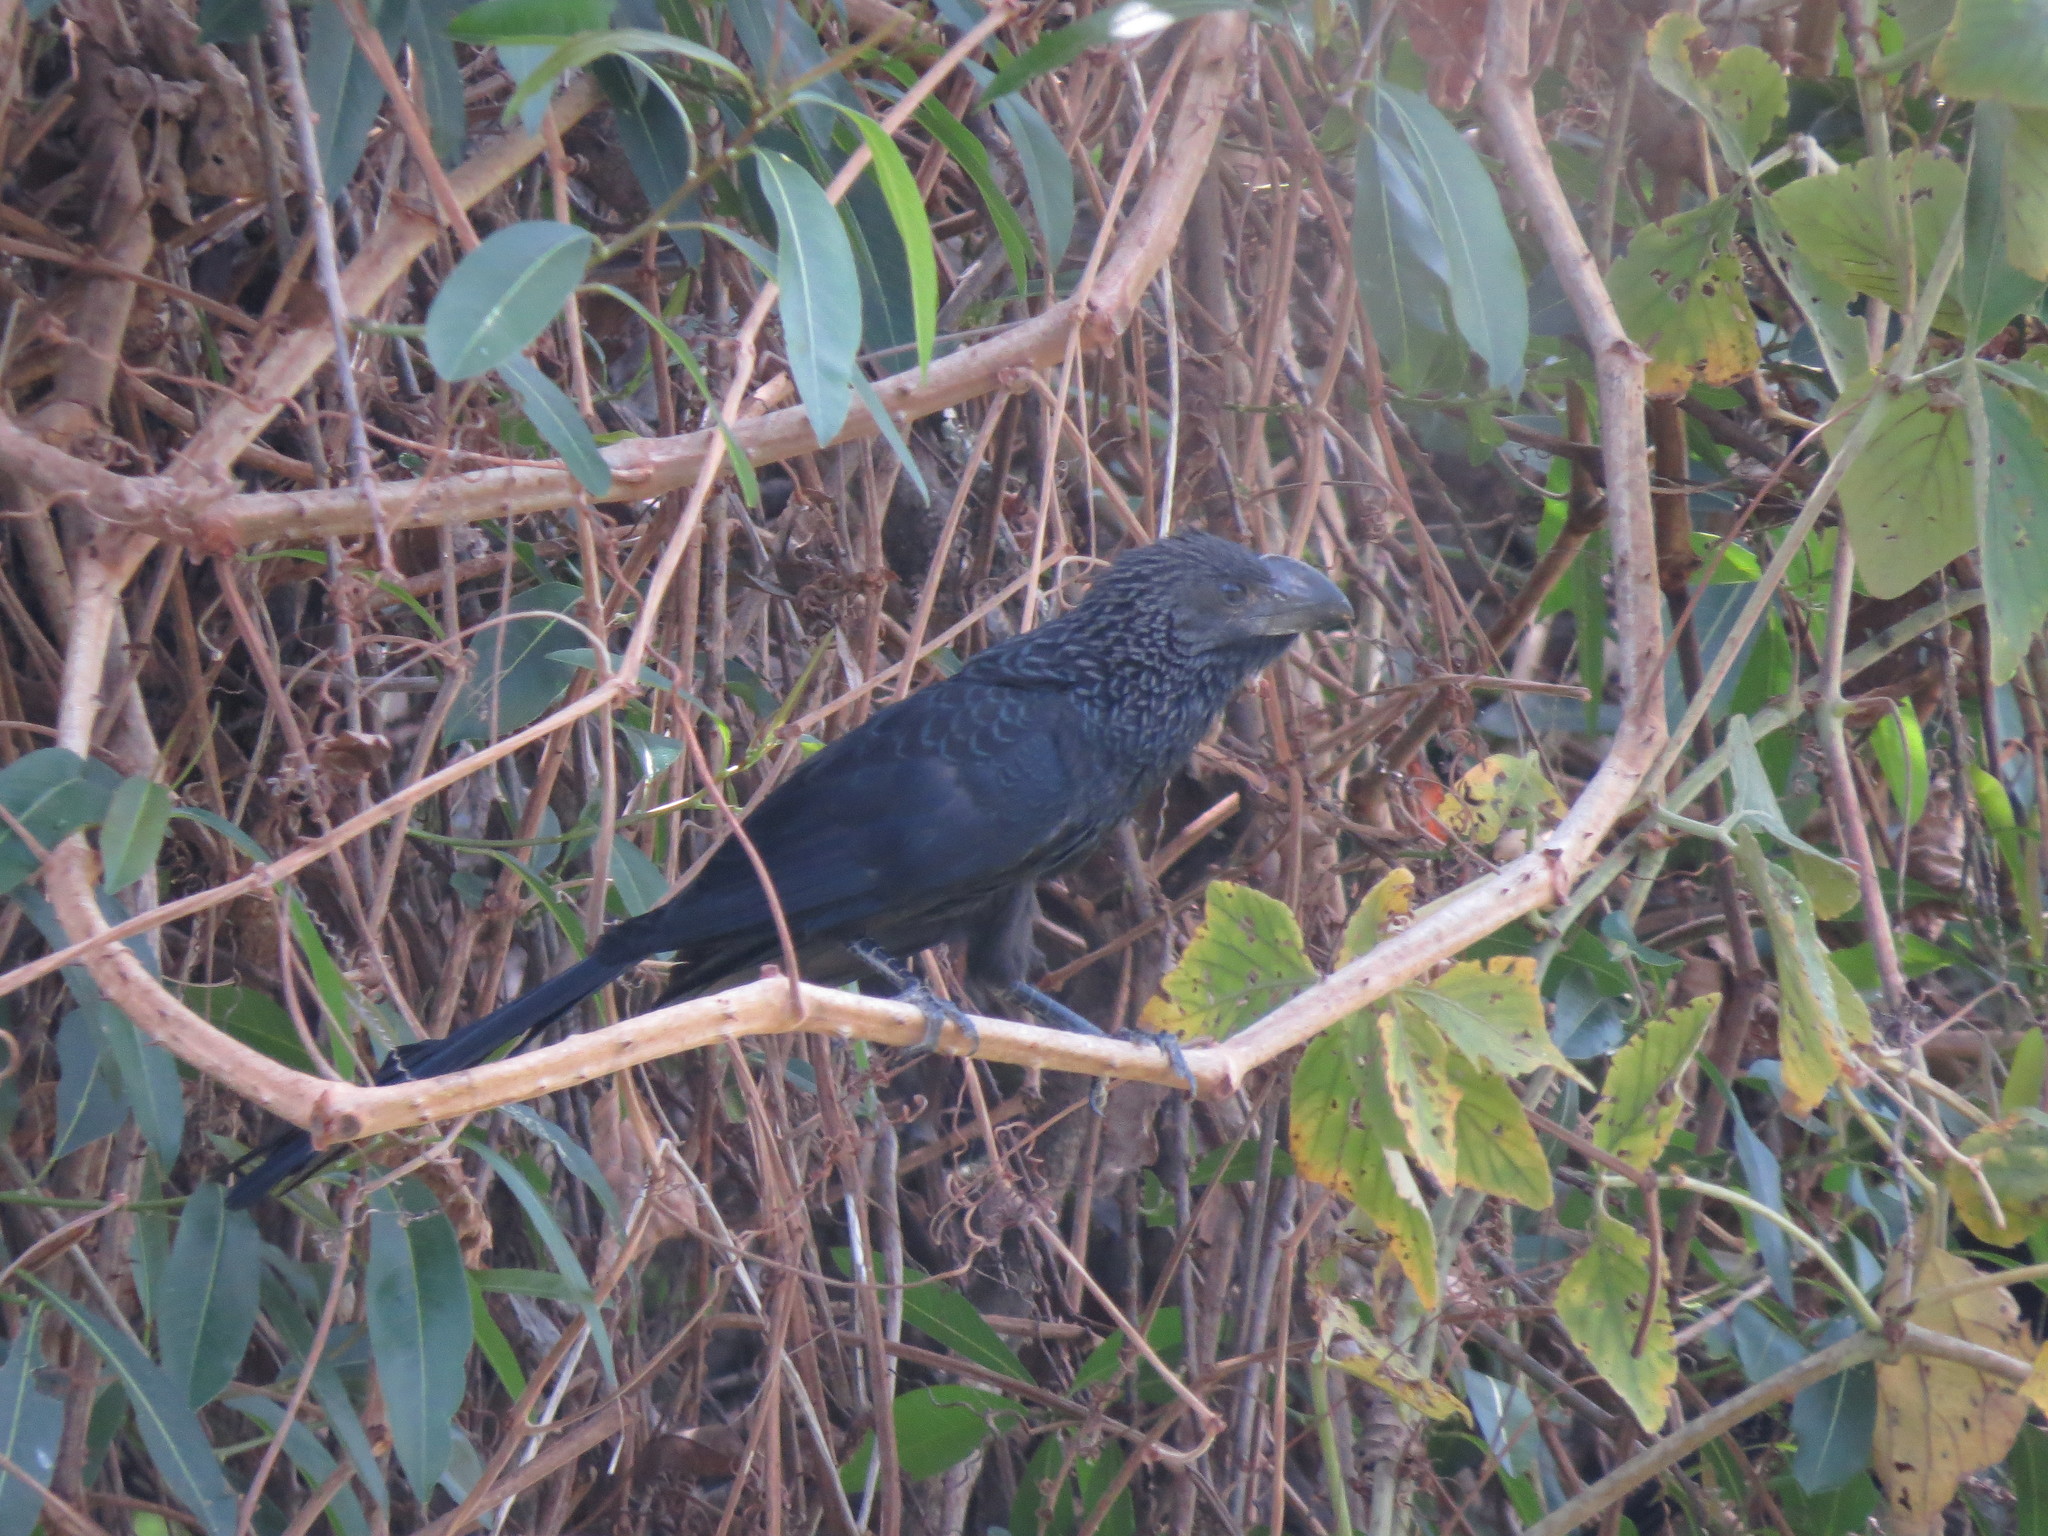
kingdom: Animalia
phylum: Chordata
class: Aves
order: Cuculiformes
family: Cuculidae
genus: Crotophaga
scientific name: Crotophaga ani
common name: Smooth-billed ani
